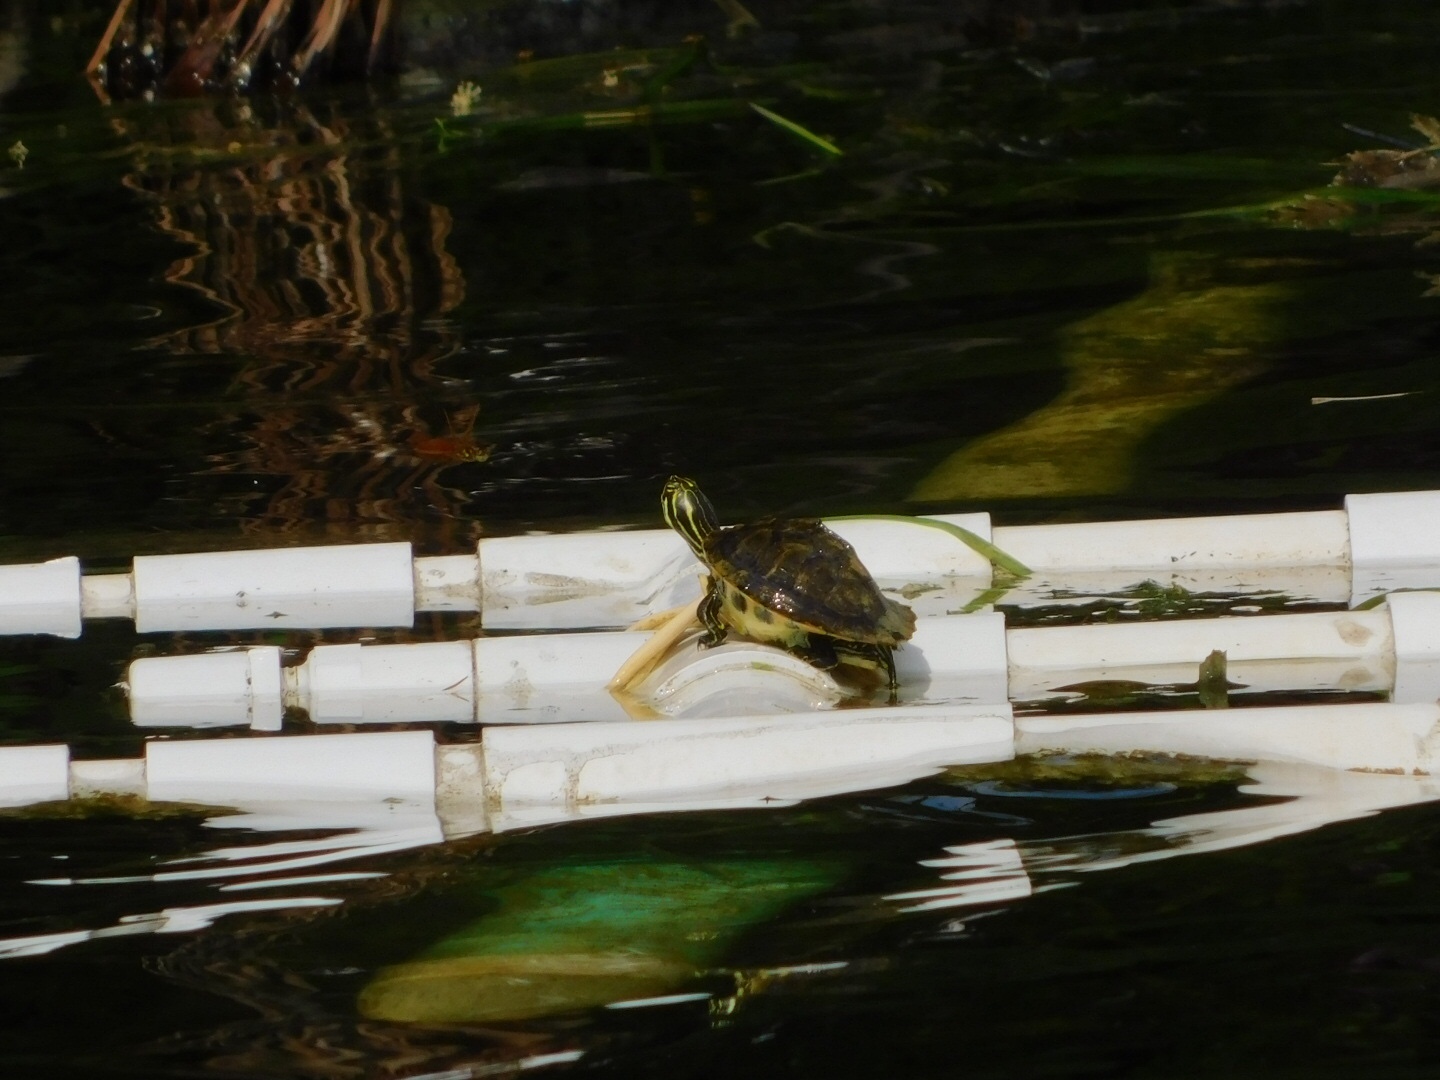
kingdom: Animalia
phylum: Chordata
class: Testudines
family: Emydidae
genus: Pseudemys
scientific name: Pseudemys peninsularis
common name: Peninsula cooter
